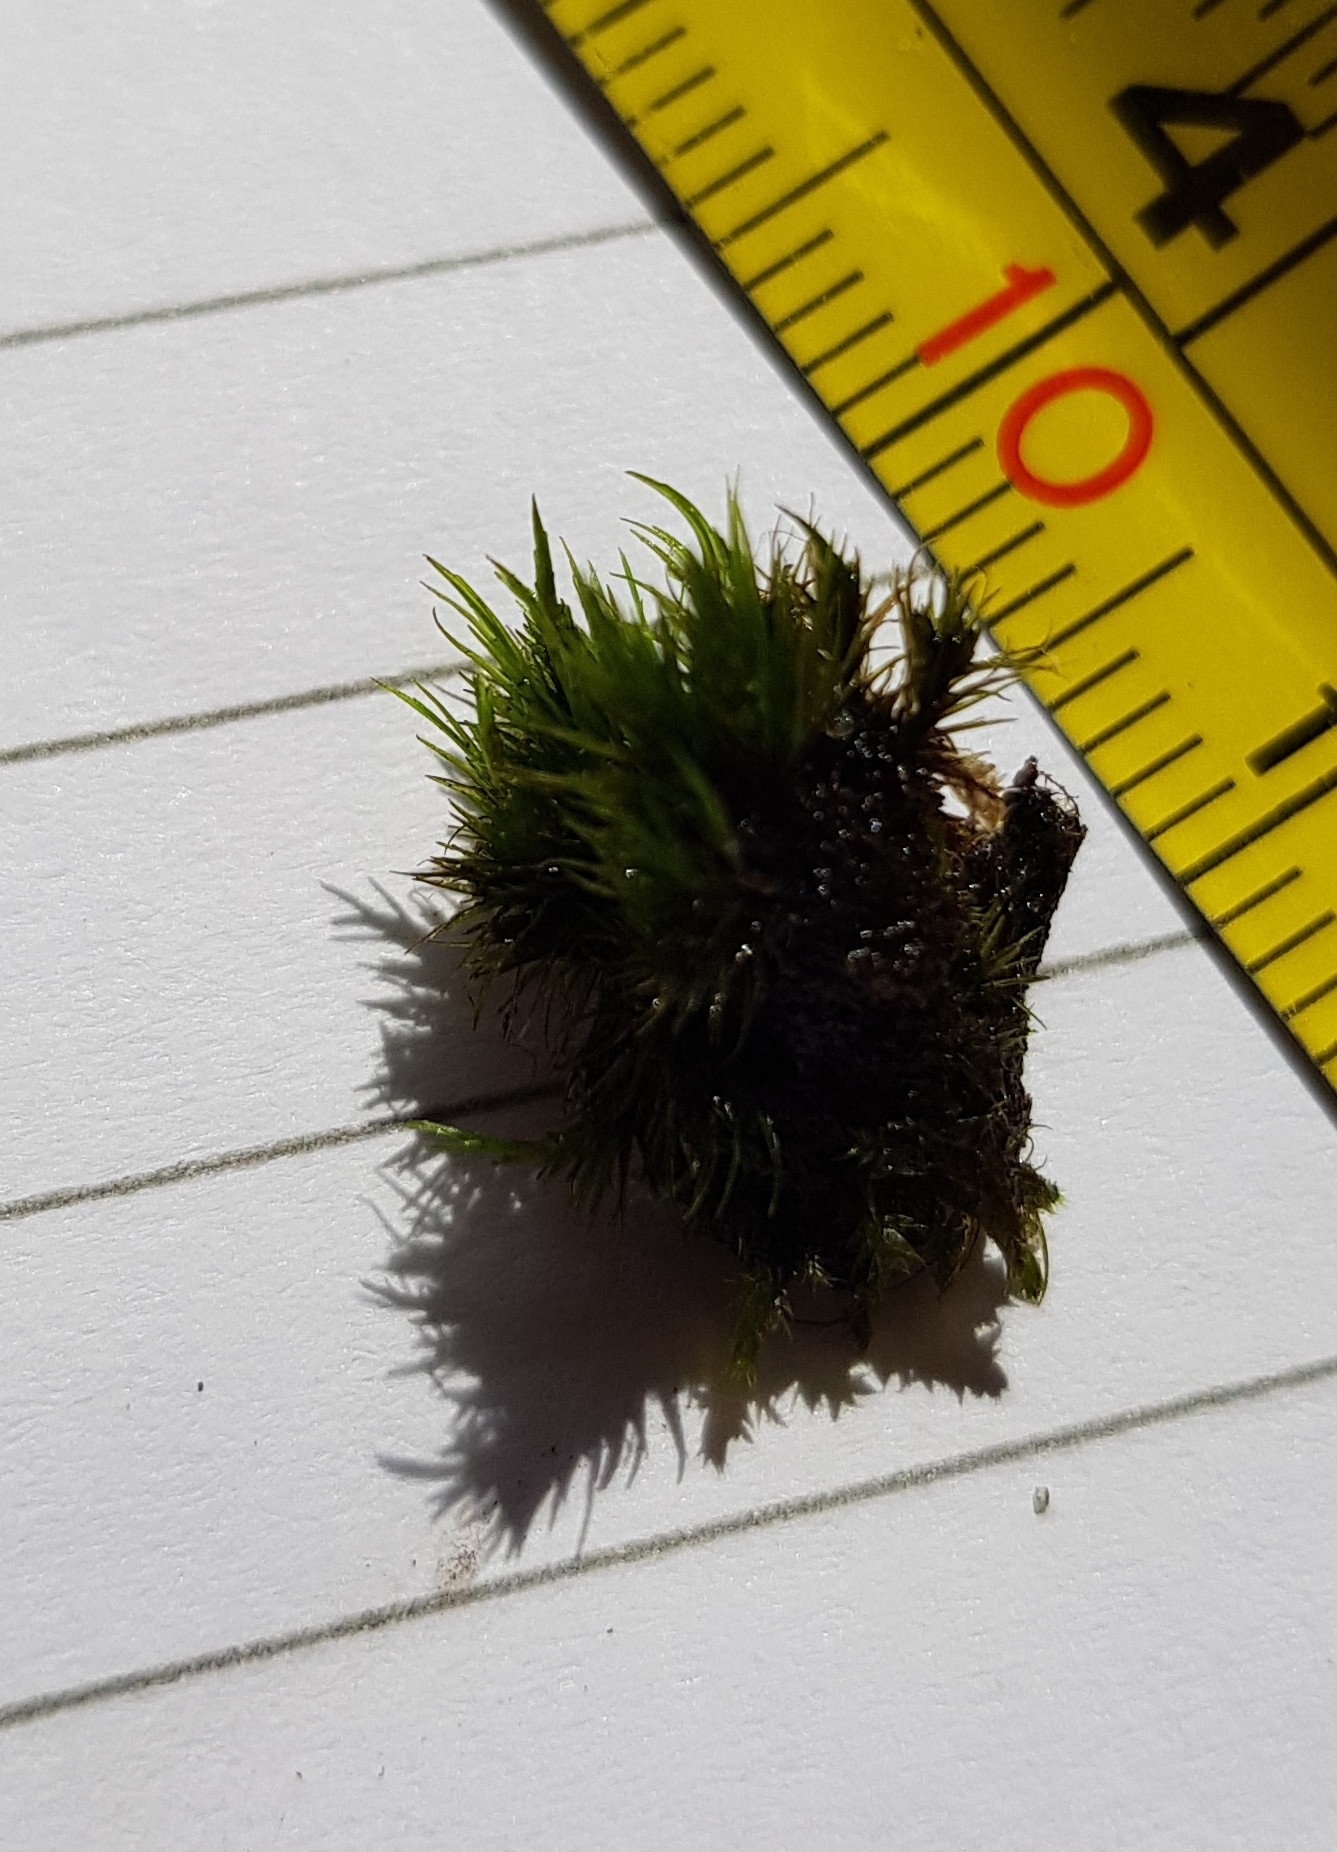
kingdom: Plantae
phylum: Bryophyta
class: Bryopsida
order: Dicranales
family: Leucobryaceae
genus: Campylopus
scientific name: Campylopus flexuosus
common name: Rusty swan-neck moss
